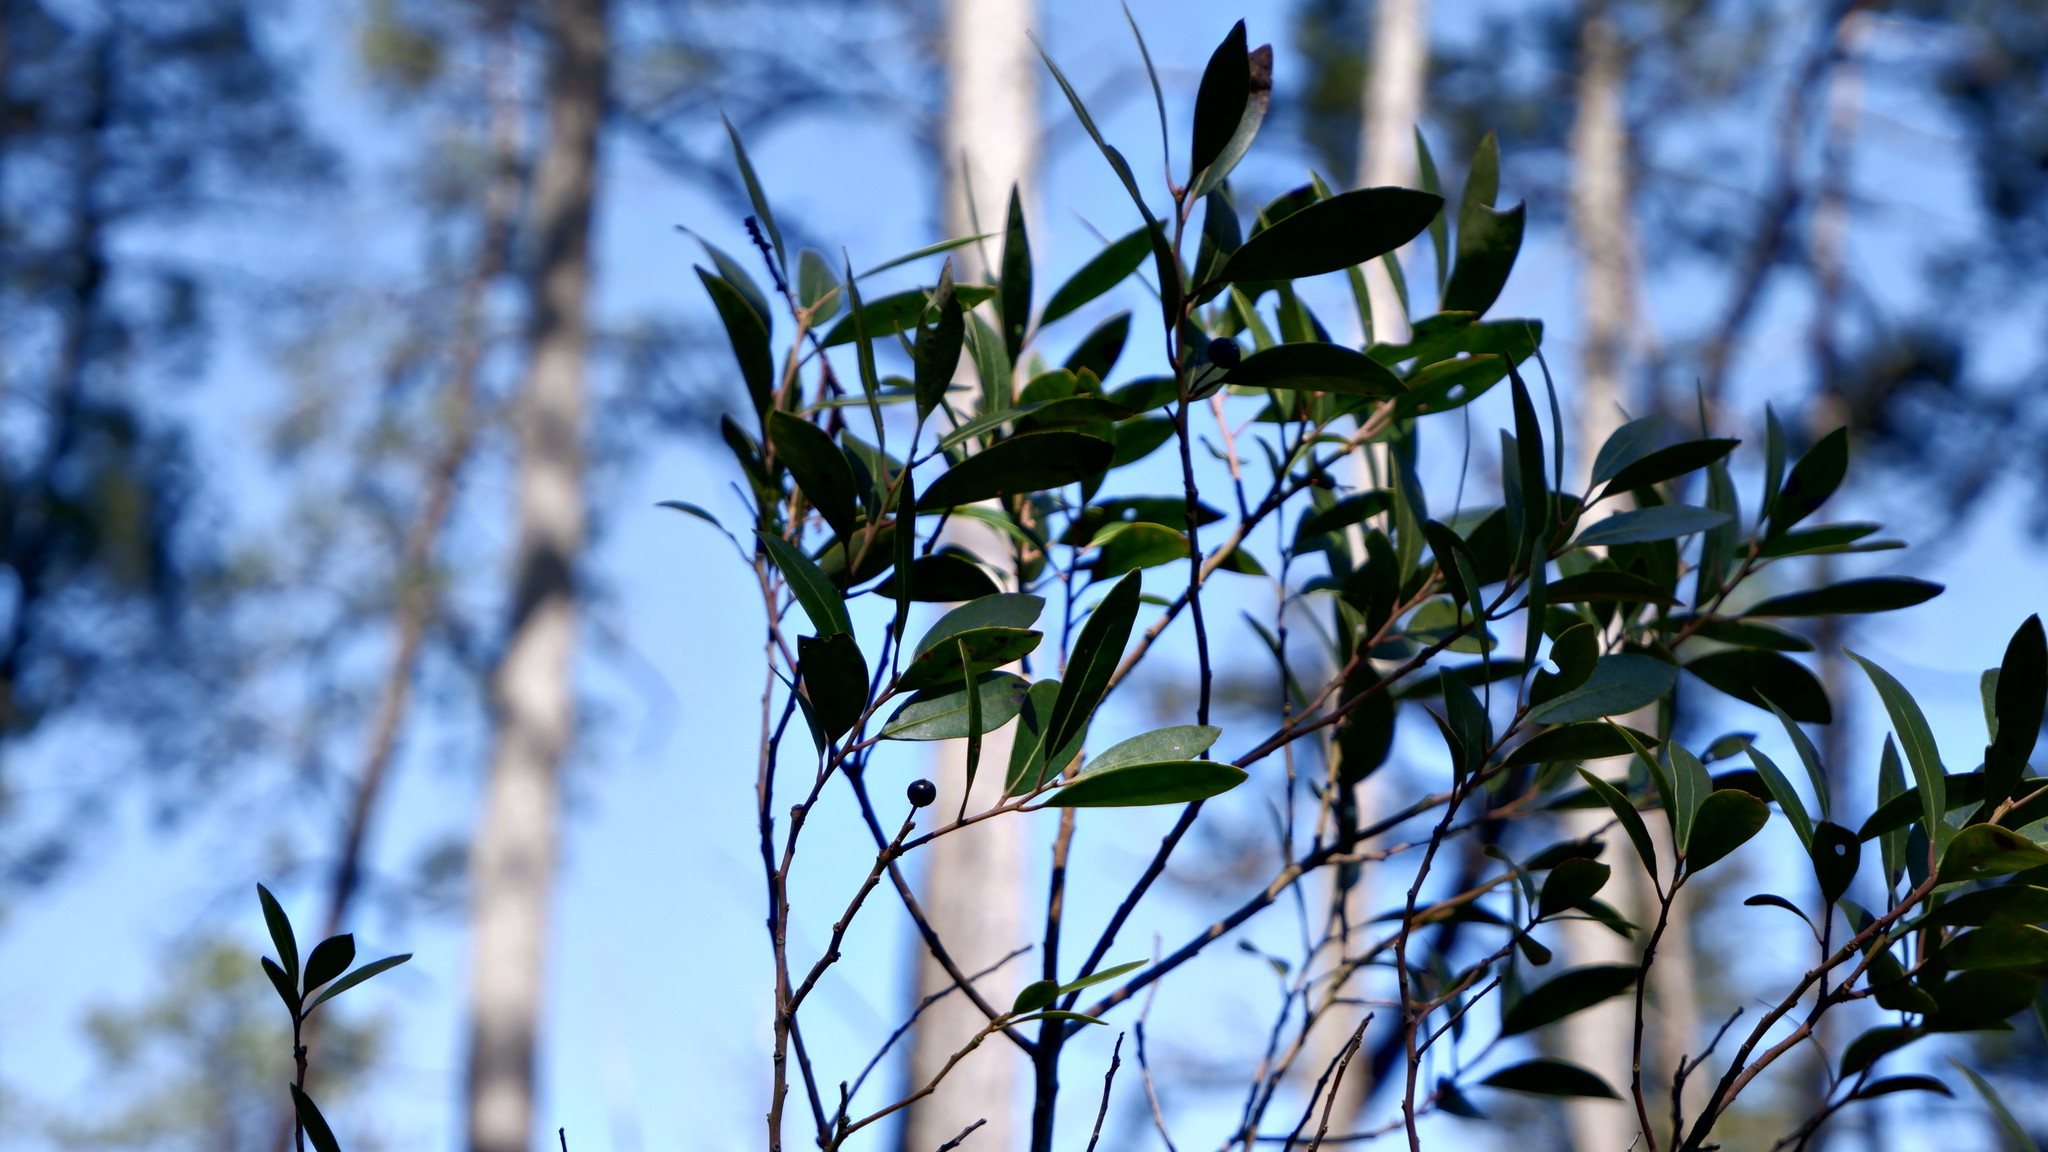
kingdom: Plantae
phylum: Tracheophyta
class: Magnoliopsida
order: Aquifoliales
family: Aquifoliaceae
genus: Ilex
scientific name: Ilex glabra
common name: Bitter gallberry
